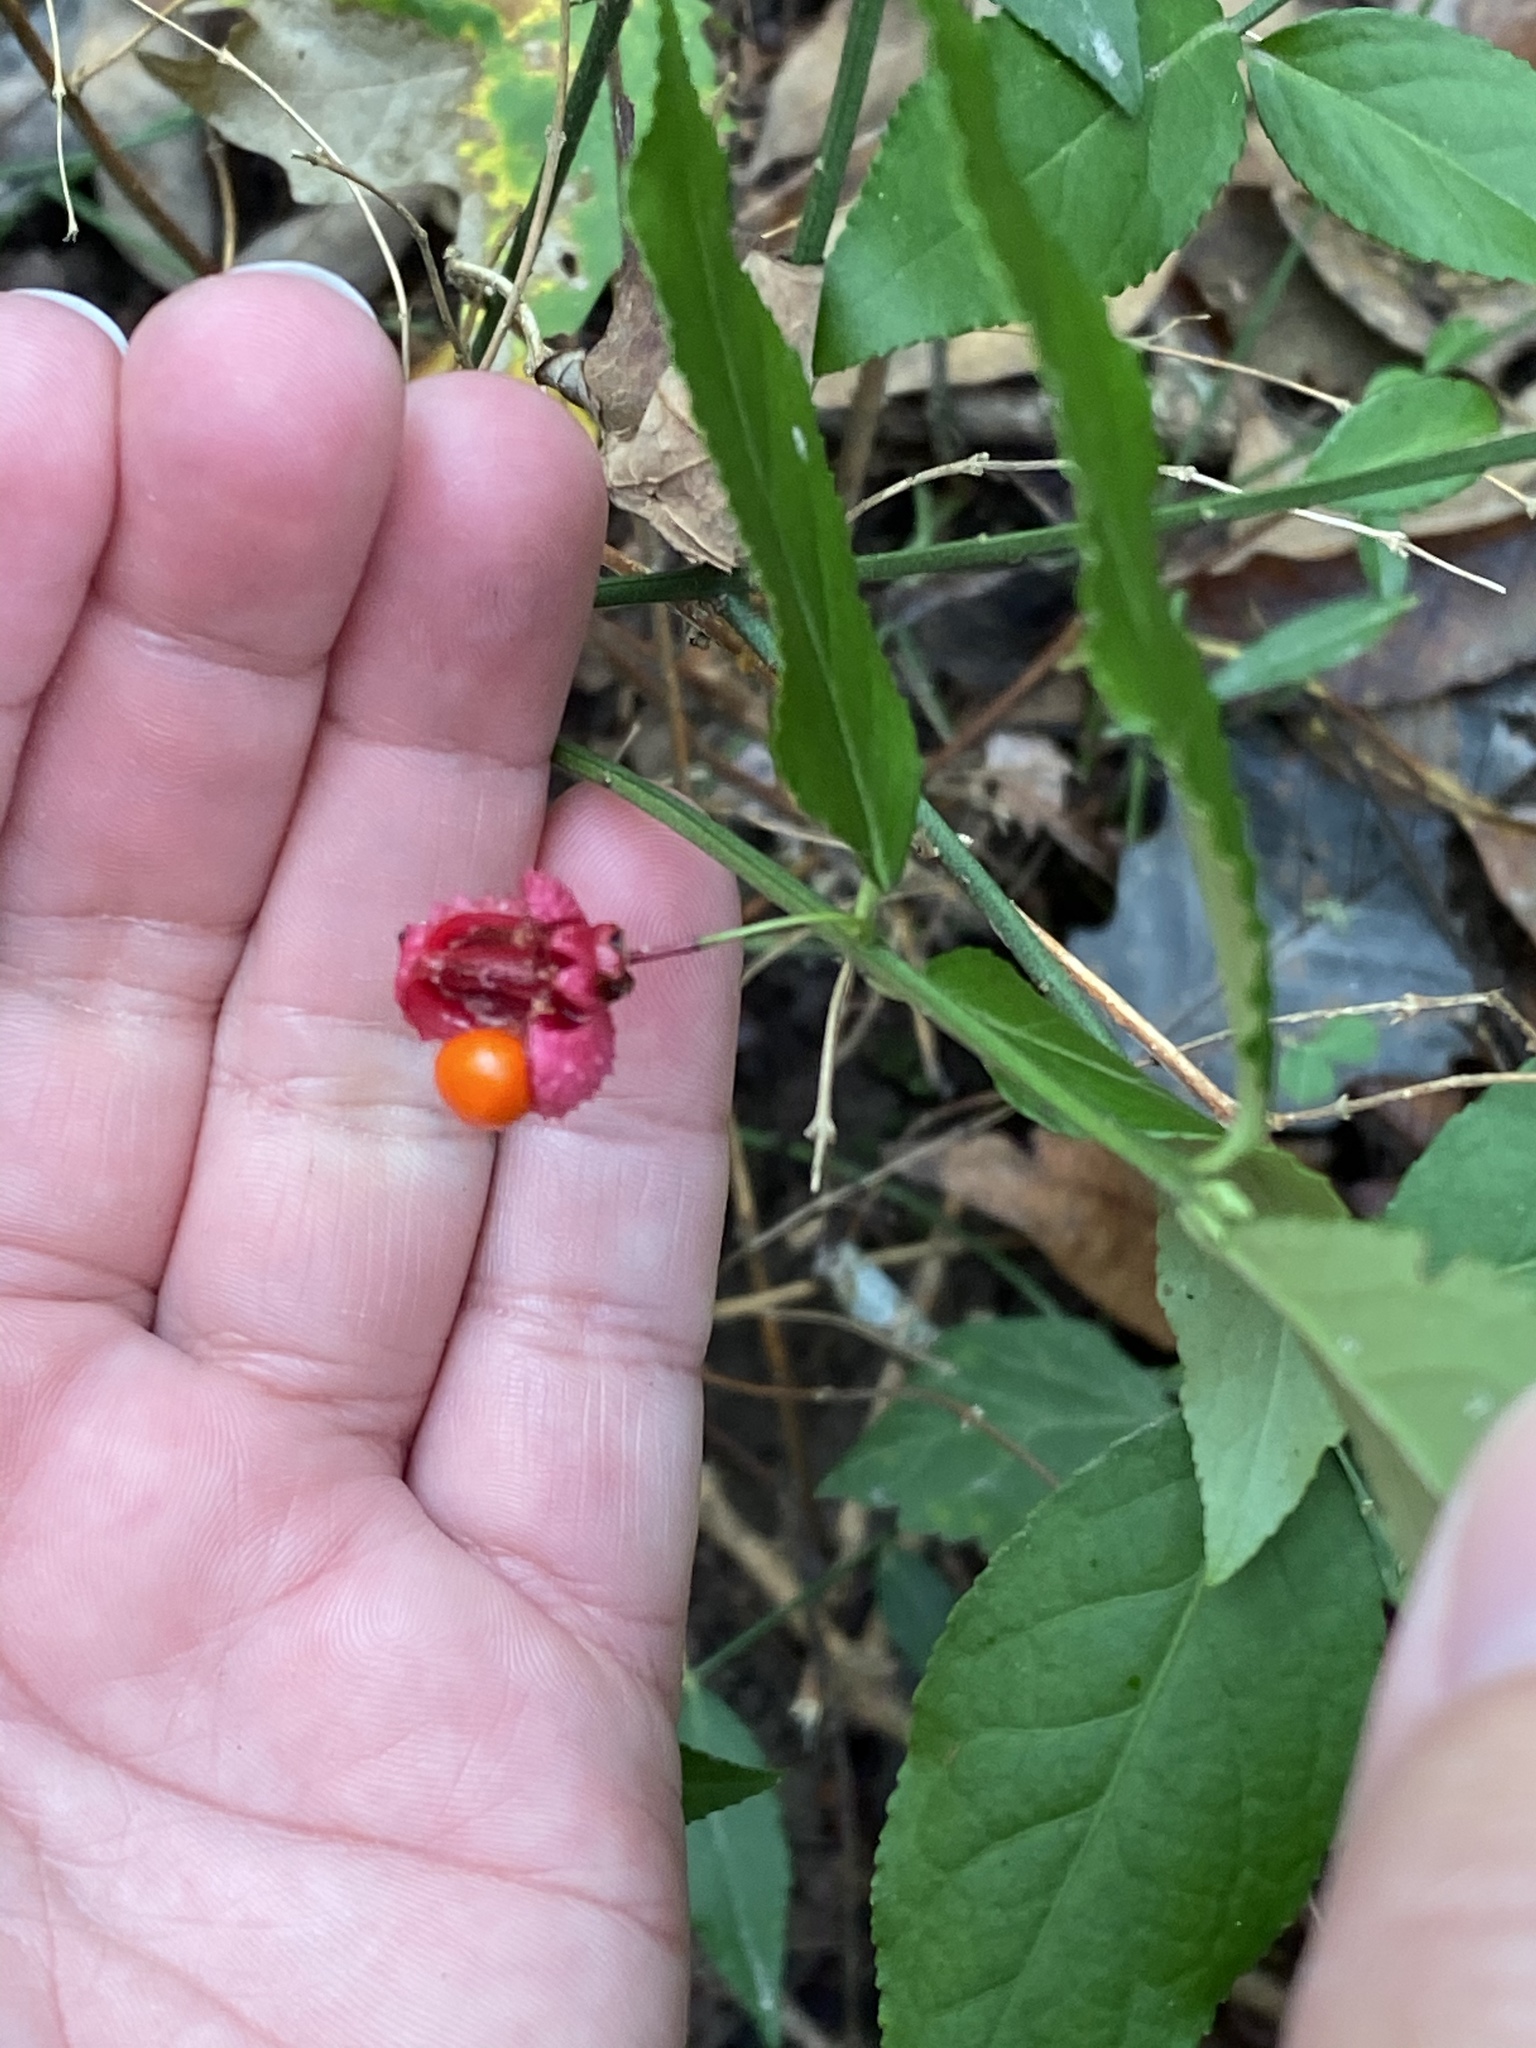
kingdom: Plantae
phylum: Tracheophyta
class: Magnoliopsida
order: Celastrales
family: Celastraceae
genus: Euonymus
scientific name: Euonymus americanus
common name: Bursting-heart
